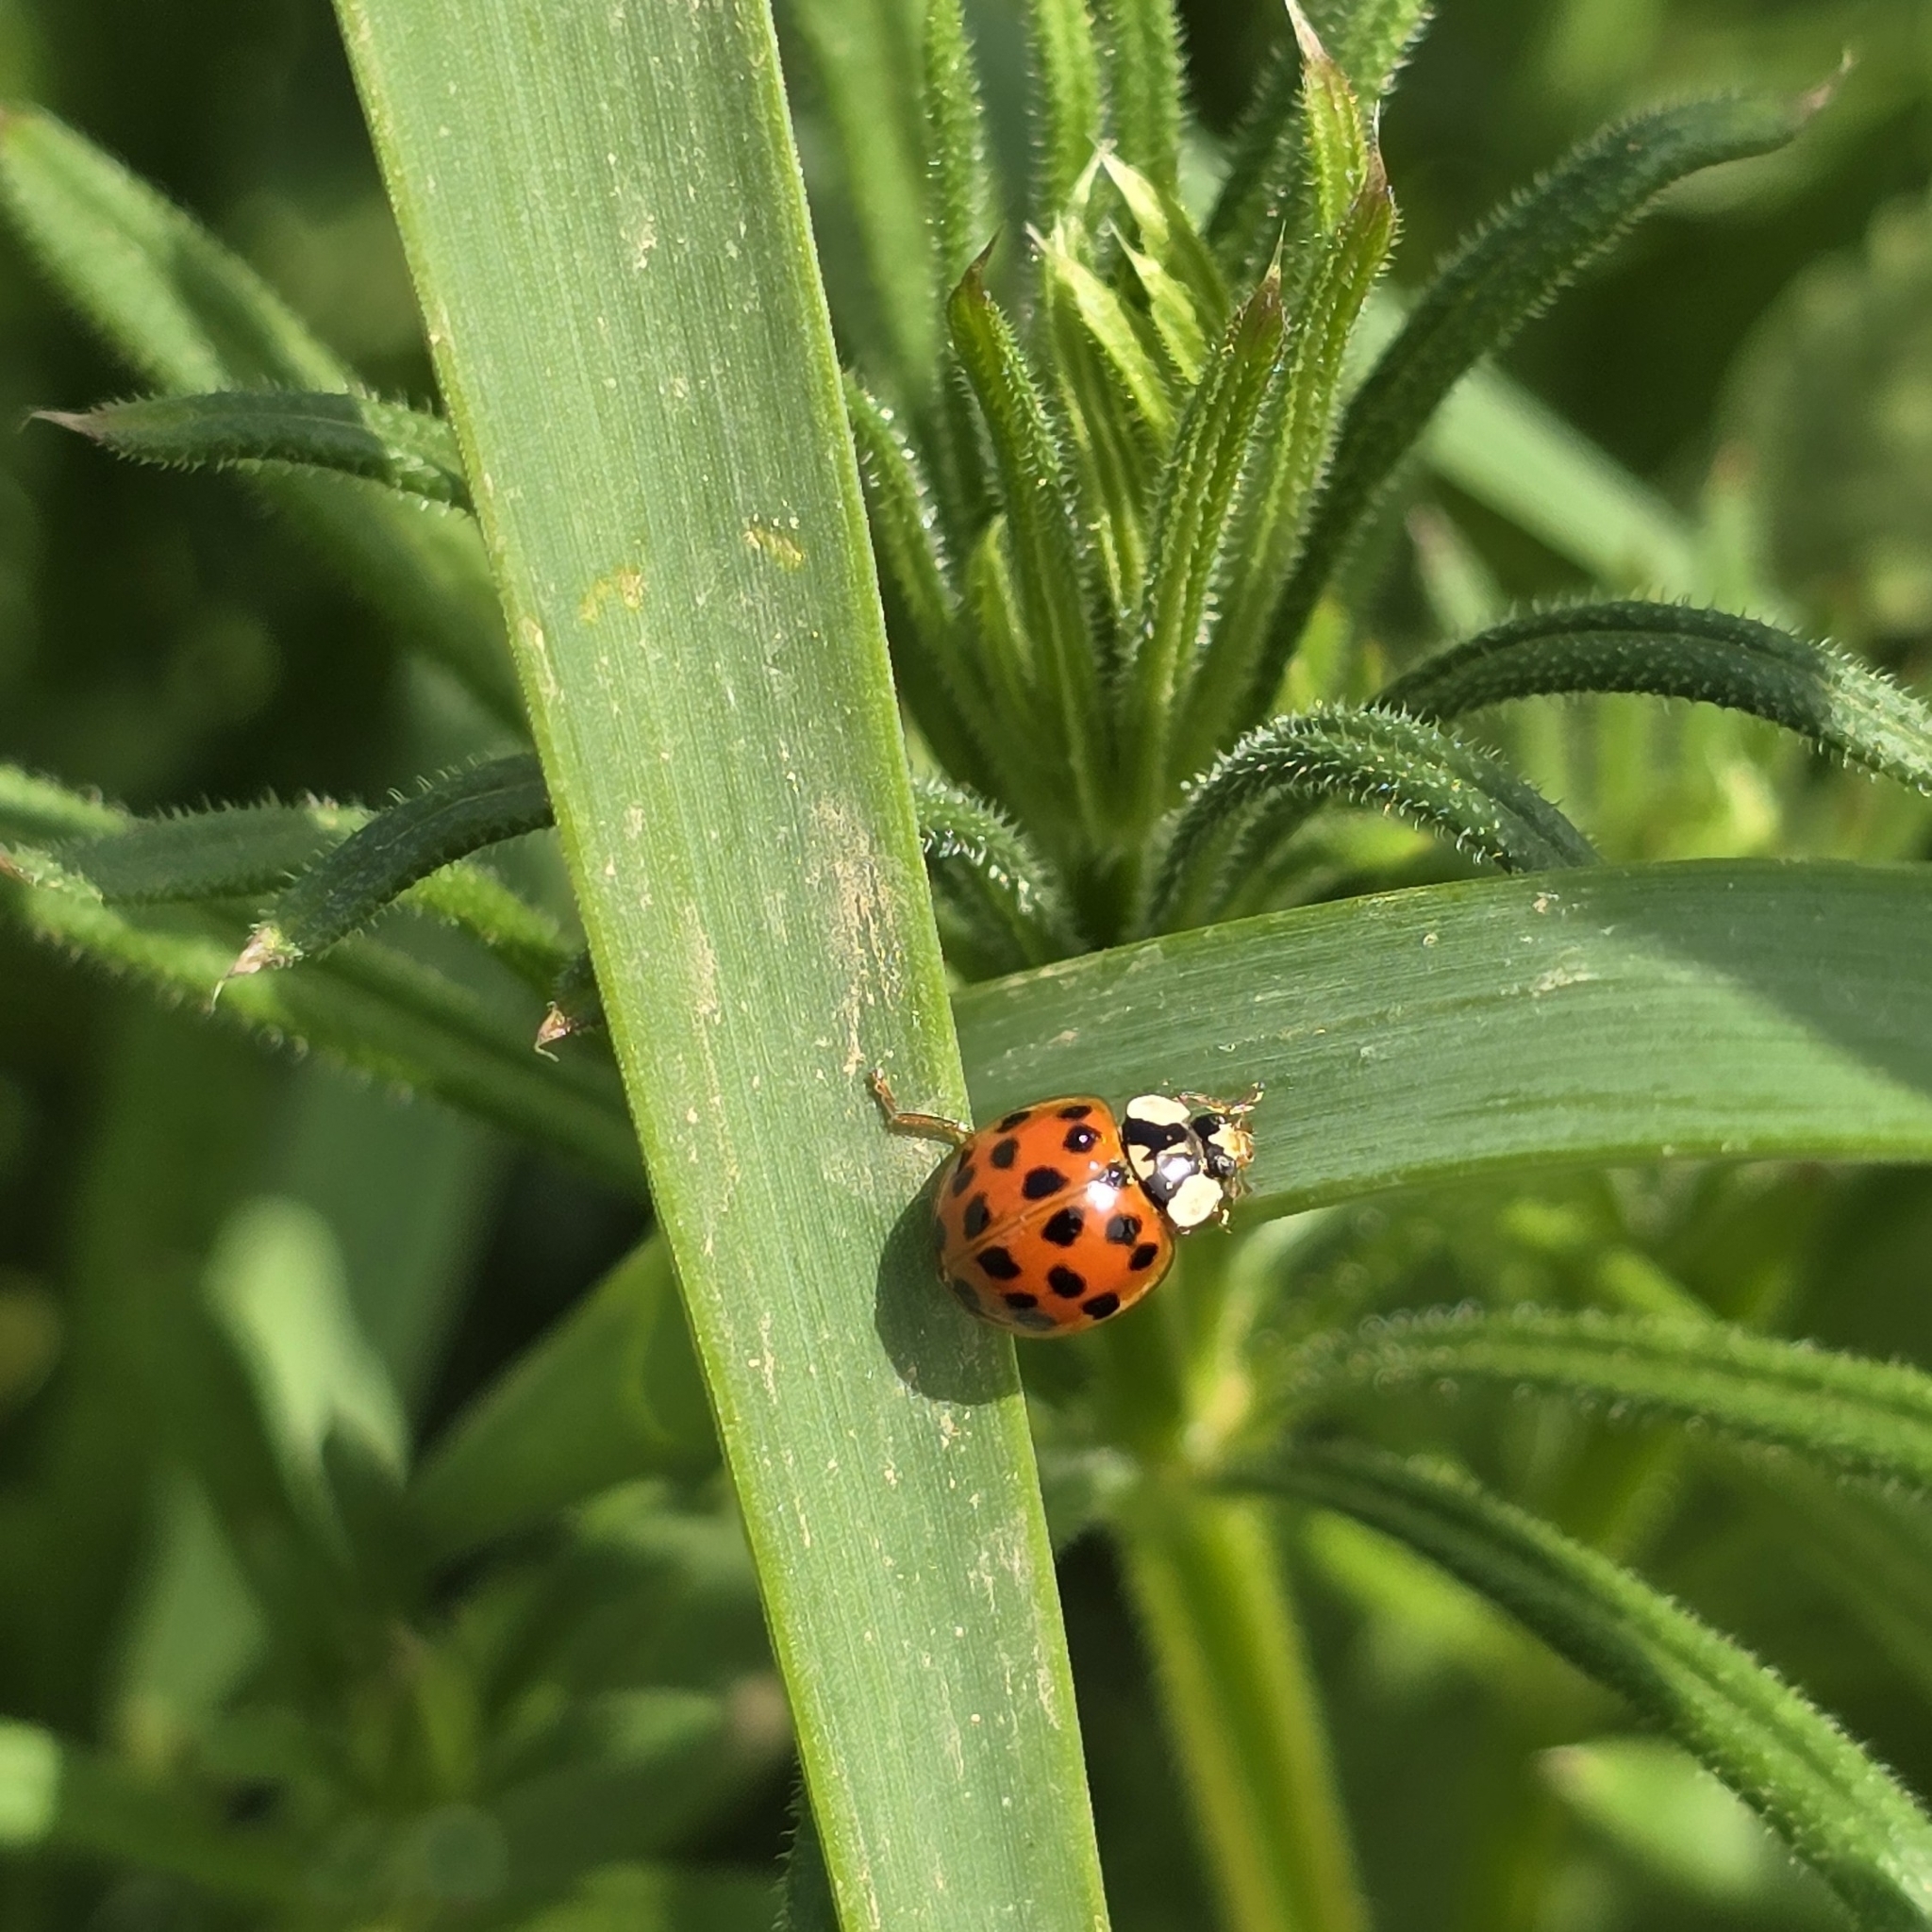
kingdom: Animalia
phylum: Arthropoda
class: Insecta
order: Coleoptera
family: Coccinellidae
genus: Harmonia
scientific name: Harmonia axyridis
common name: Harlequin ladybird
